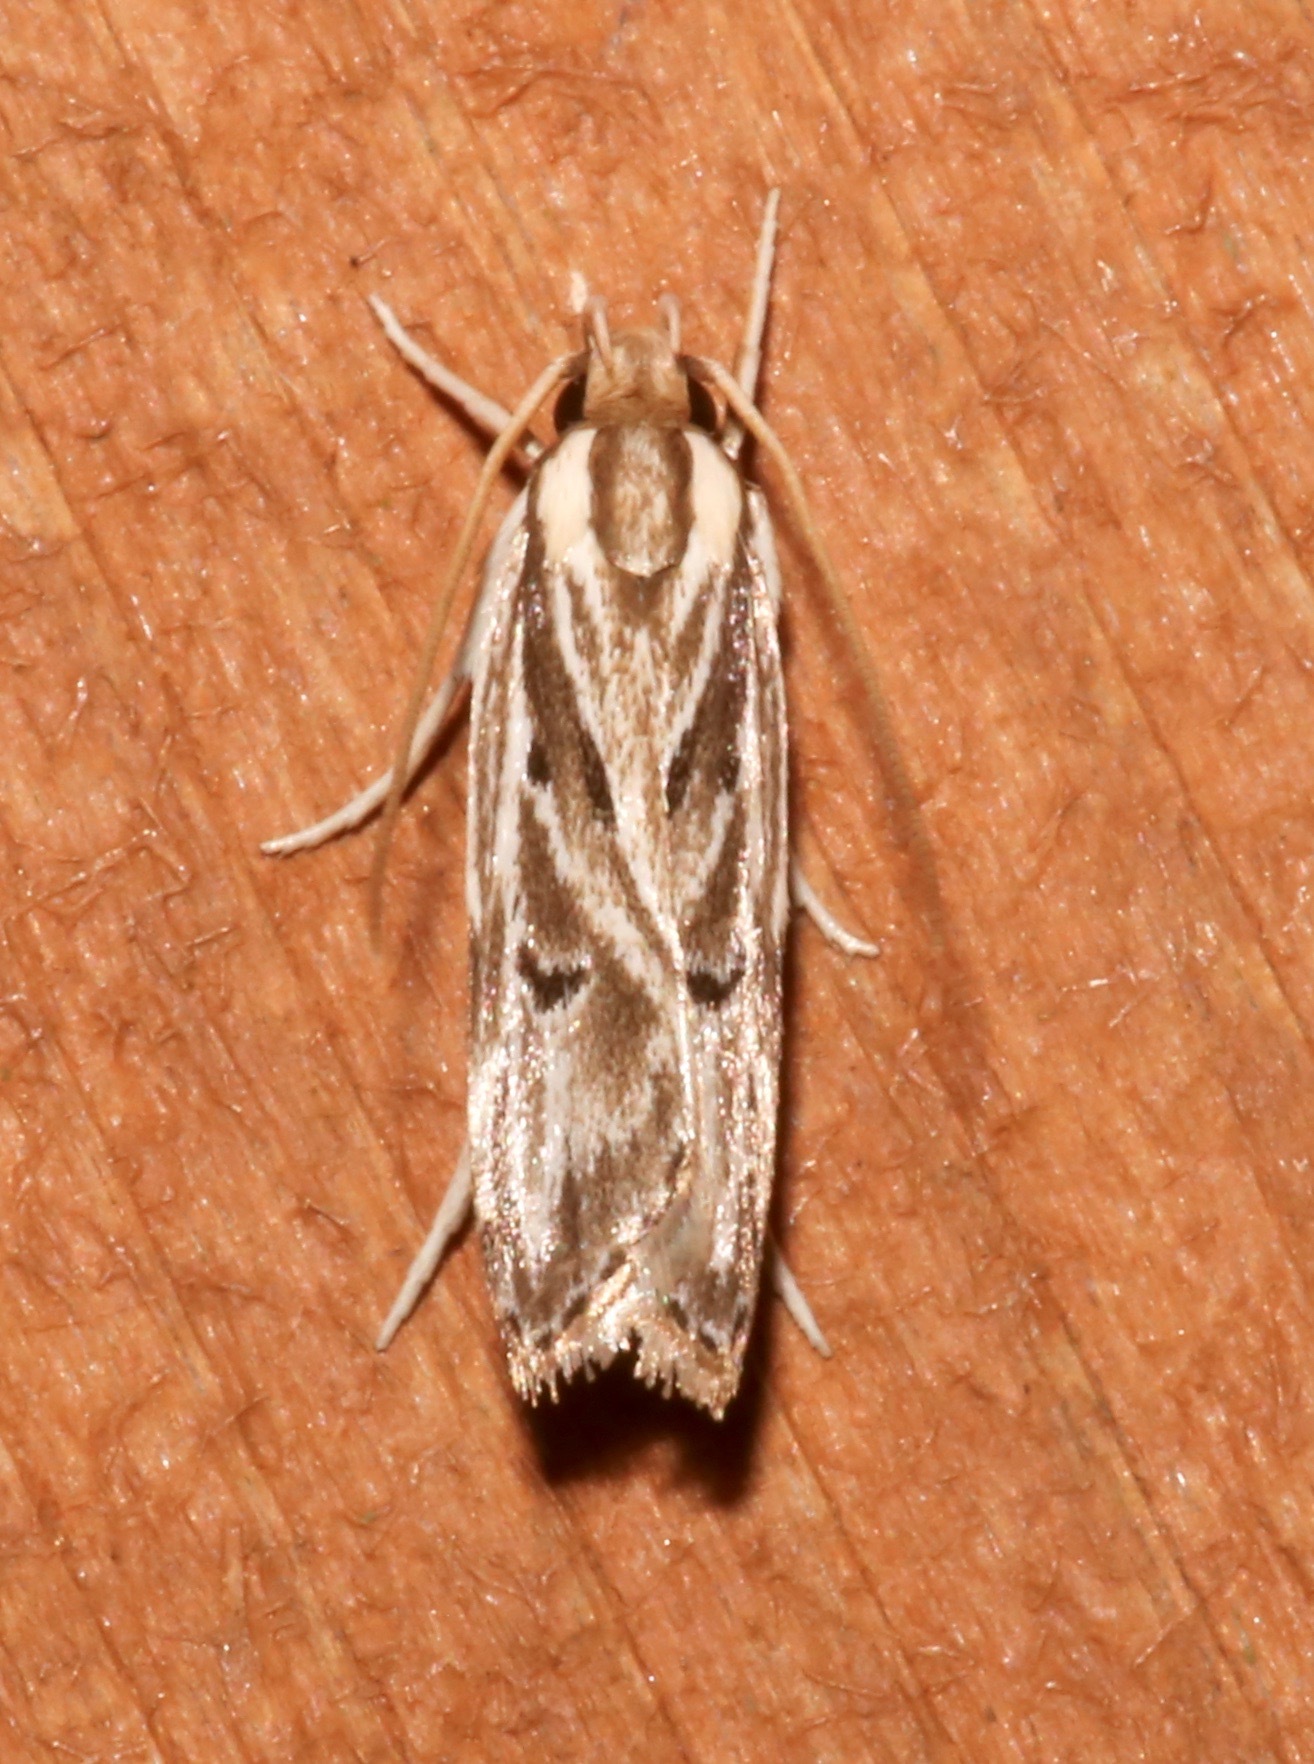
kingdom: Animalia
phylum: Arthropoda
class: Insecta
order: Lepidoptera
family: Depressariidae
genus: Eupragia
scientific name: Eupragia hospita
